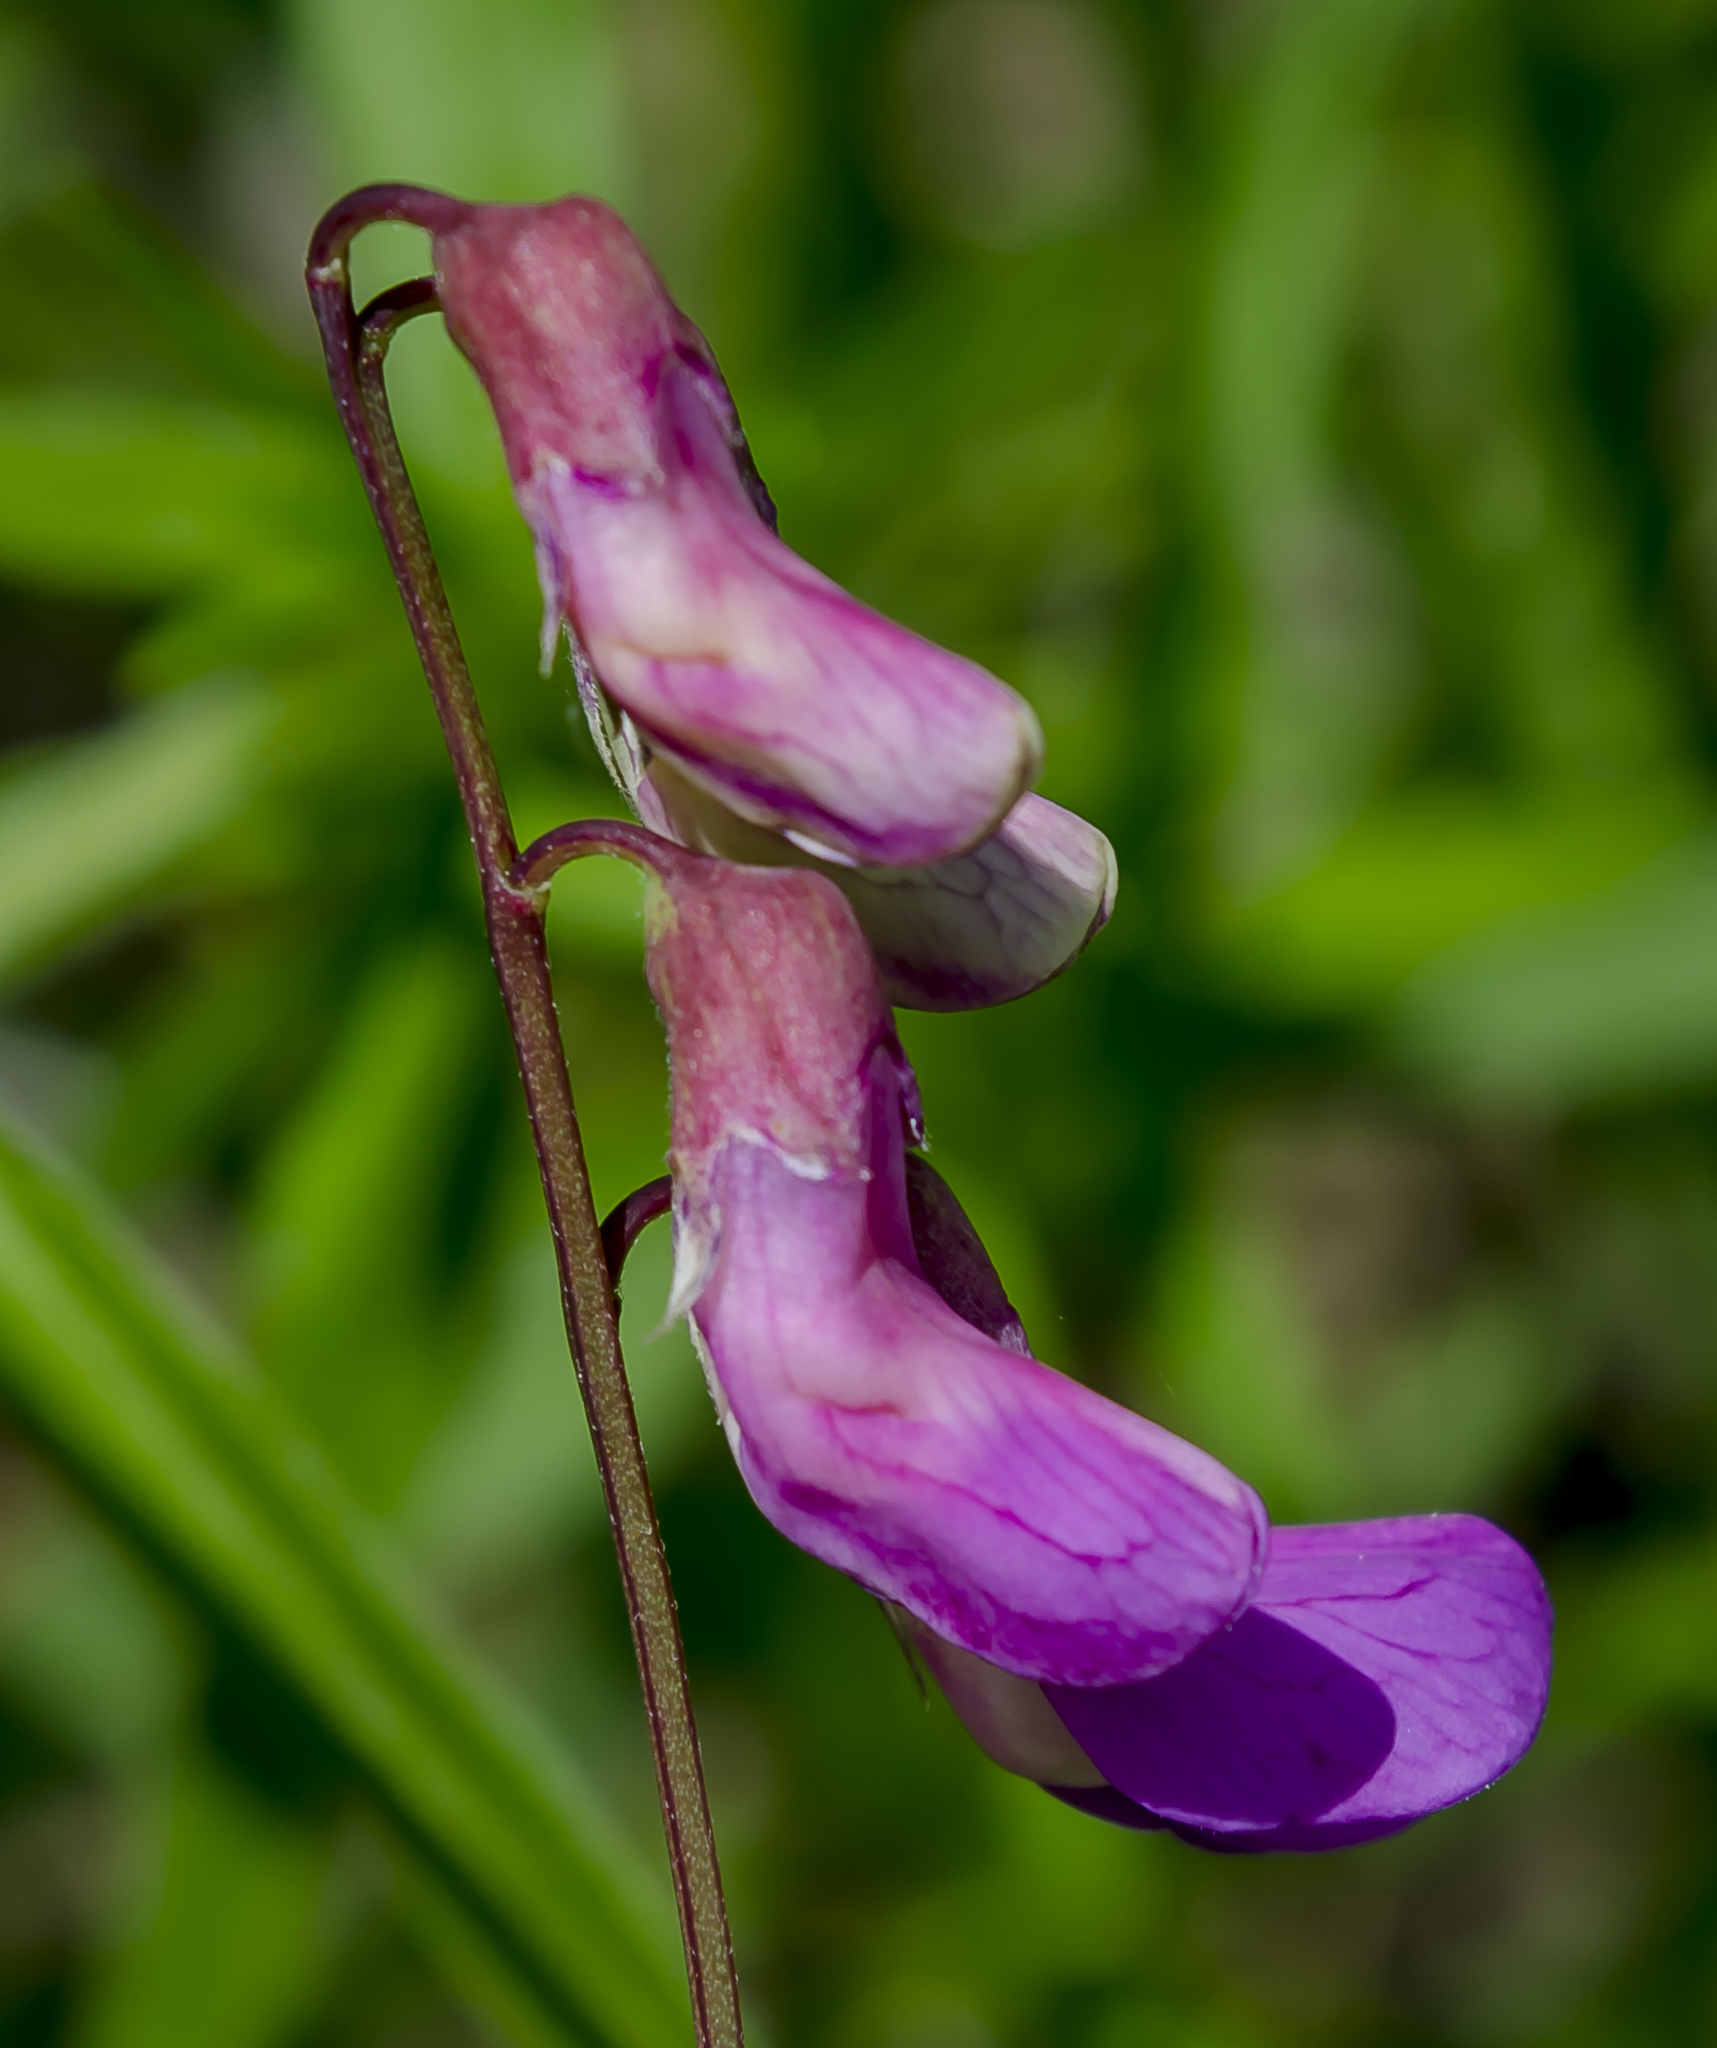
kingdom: Plantae
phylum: Tracheophyta
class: Magnoliopsida
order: Fabales
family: Fabaceae
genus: Lathyrus
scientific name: Lathyrus palustris
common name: Marsh pea
